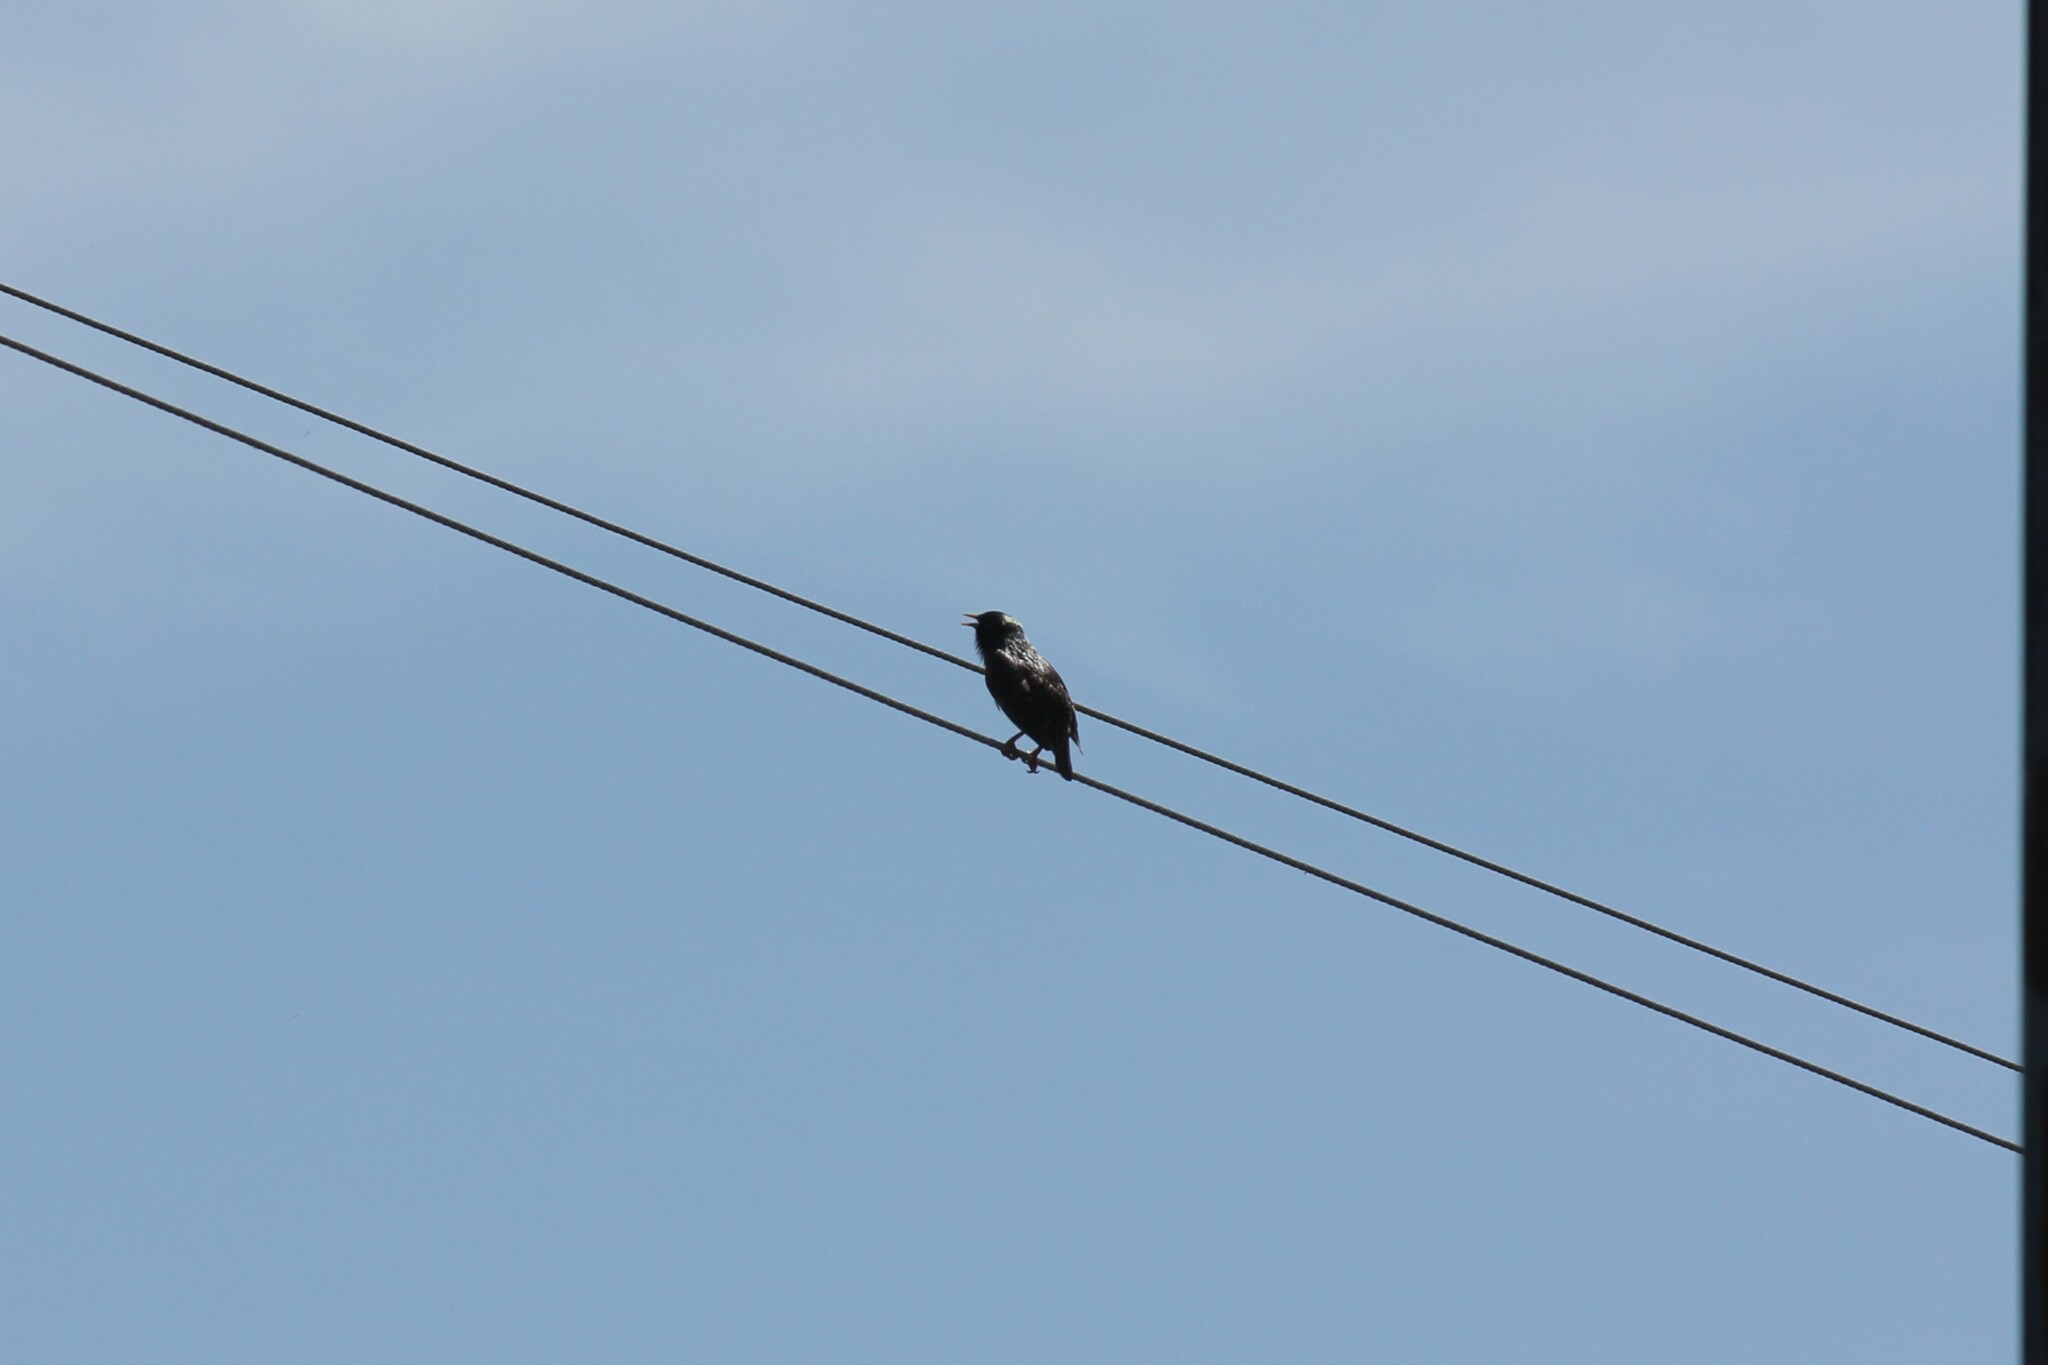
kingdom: Animalia
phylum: Chordata
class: Aves
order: Passeriformes
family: Sturnidae
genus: Sturnus
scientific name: Sturnus vulgaris
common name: Common starling
